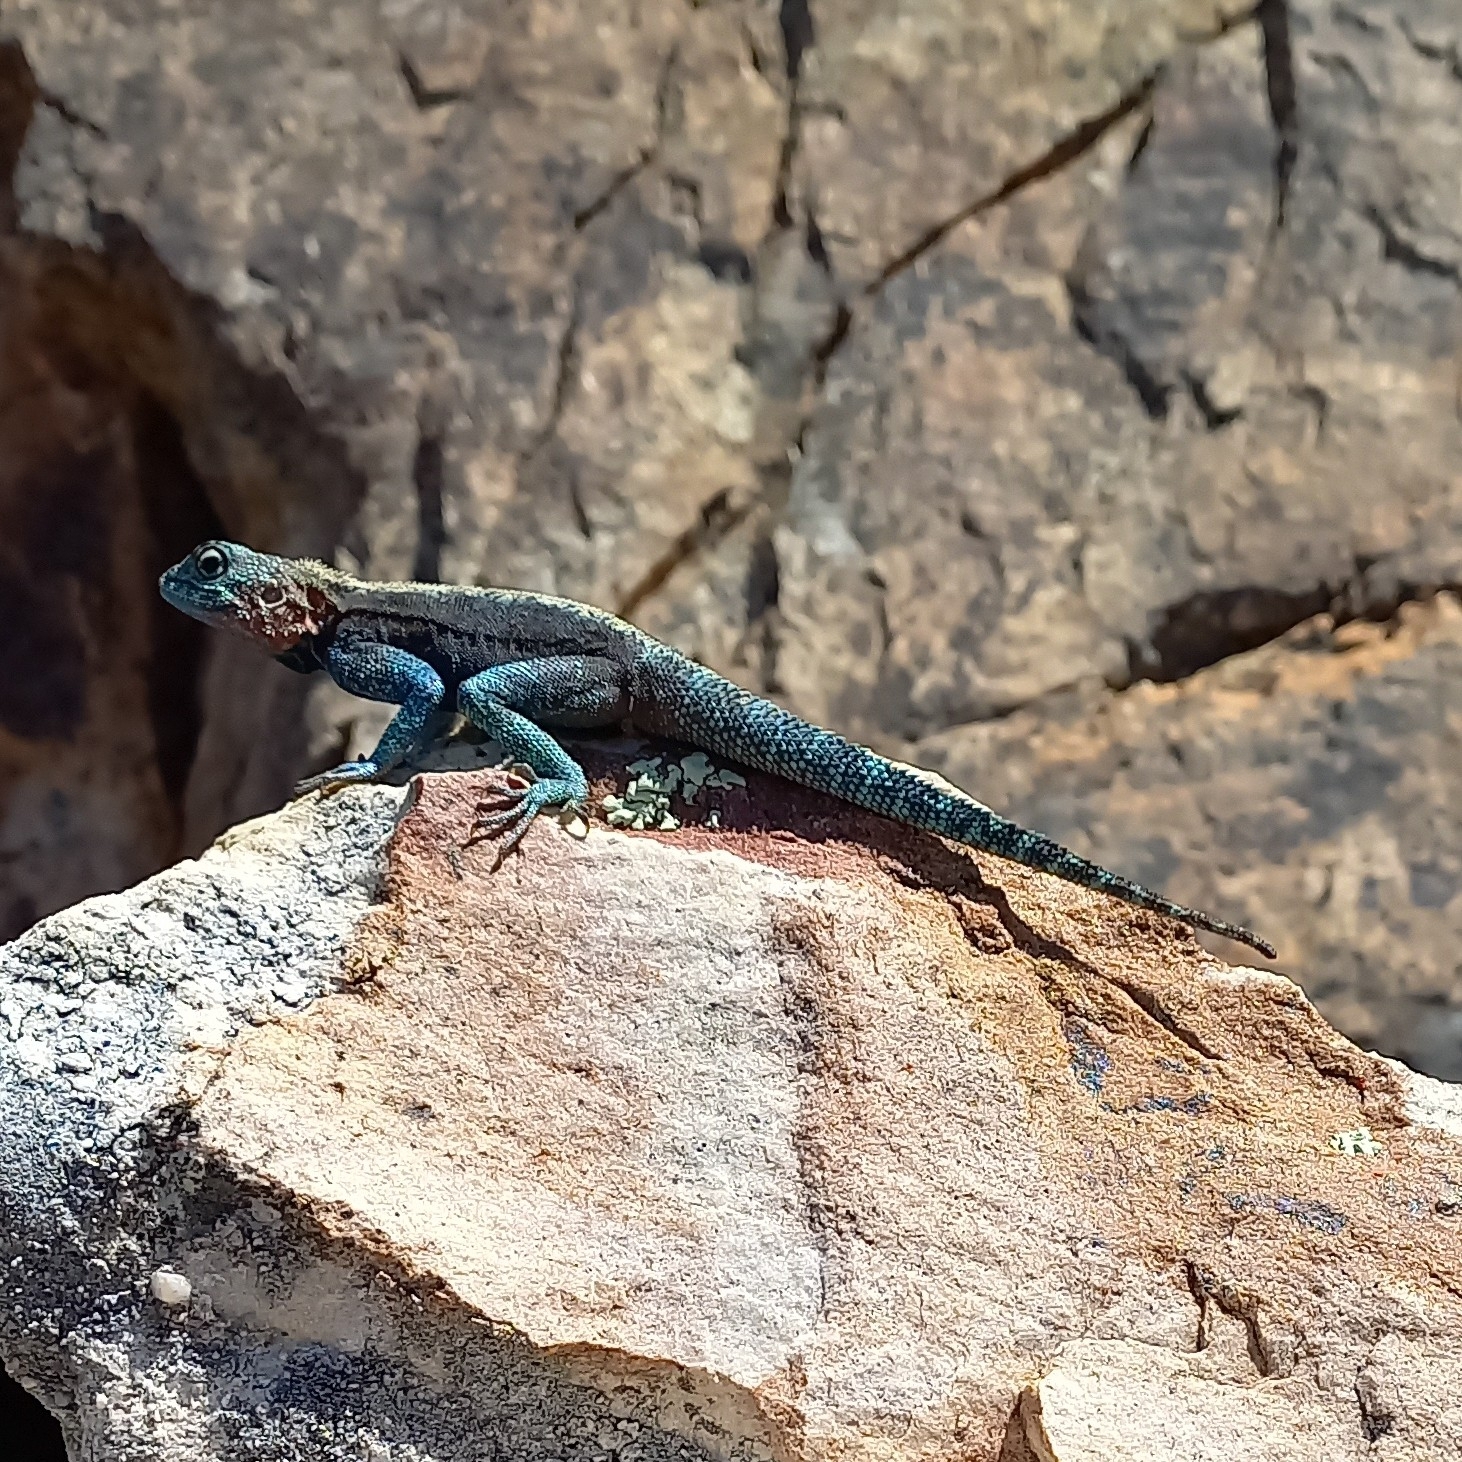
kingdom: Animalia
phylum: Chordata
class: Squamata
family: Agamidae
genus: Agama
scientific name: Agama atra
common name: Southern african rock agama
